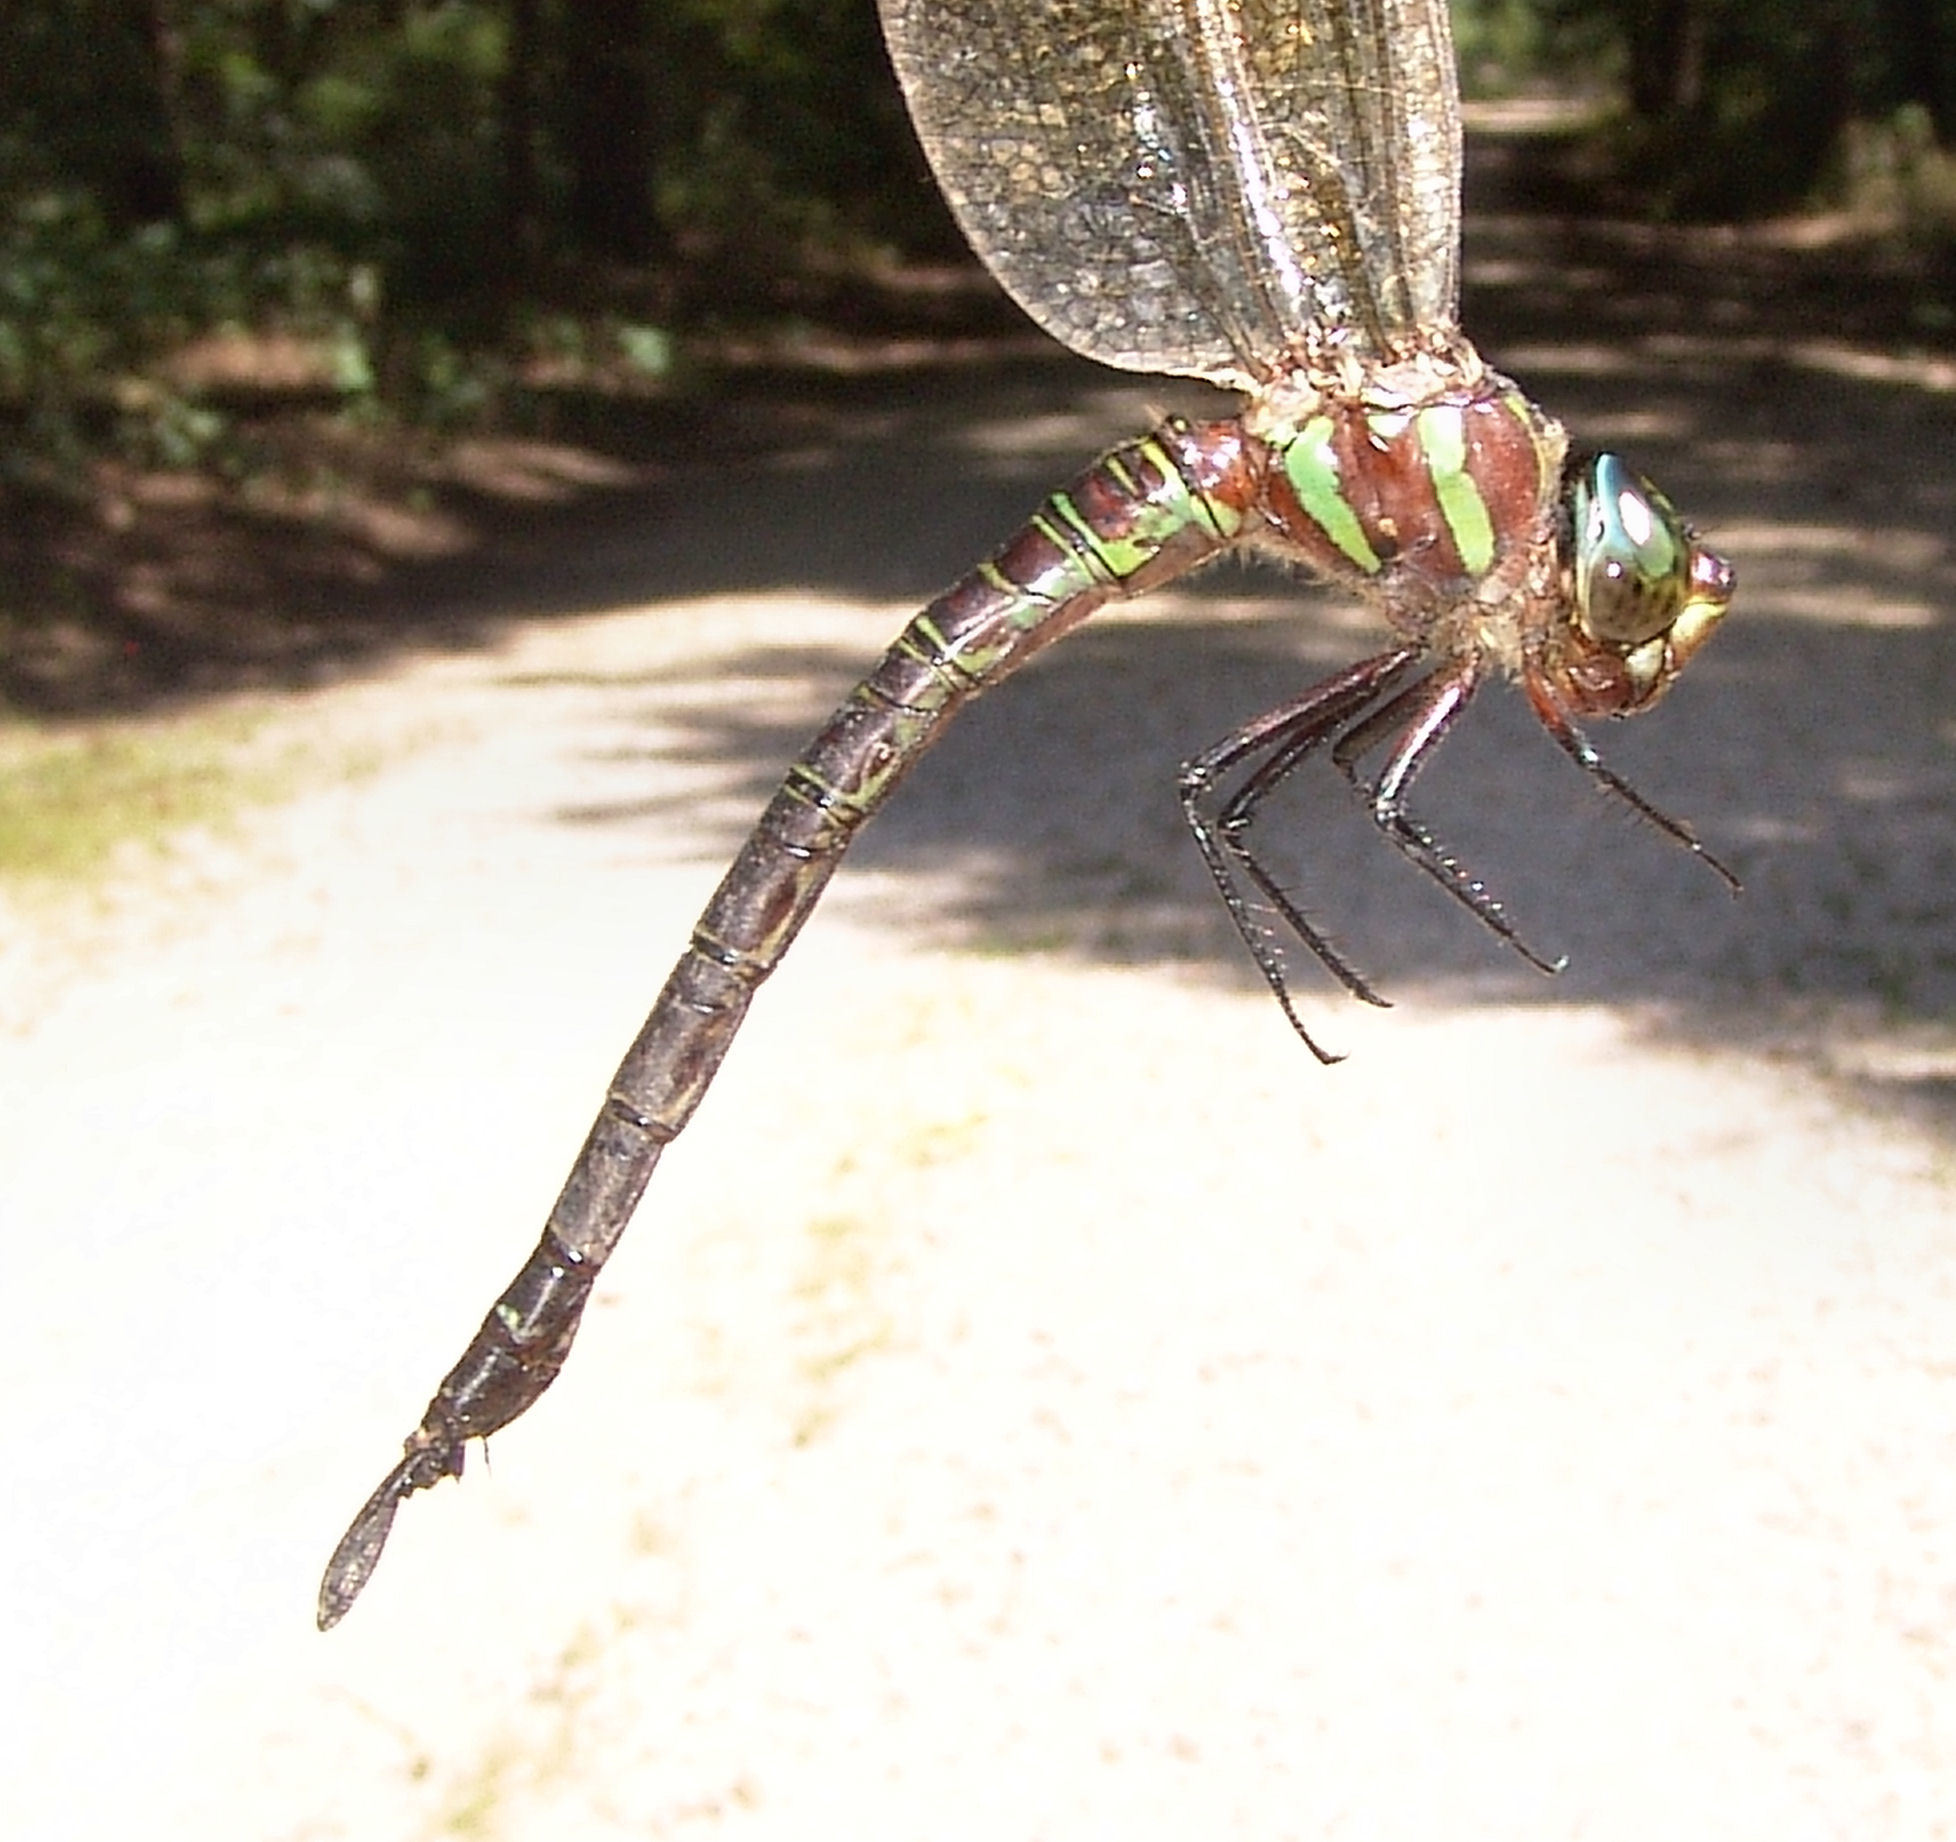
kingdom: Animalia
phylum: Arthropoda
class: Insecta
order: Odonata
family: Aeshnidae
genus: Epiaeschna
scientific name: Epiaeschna heros
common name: Swamp darner
